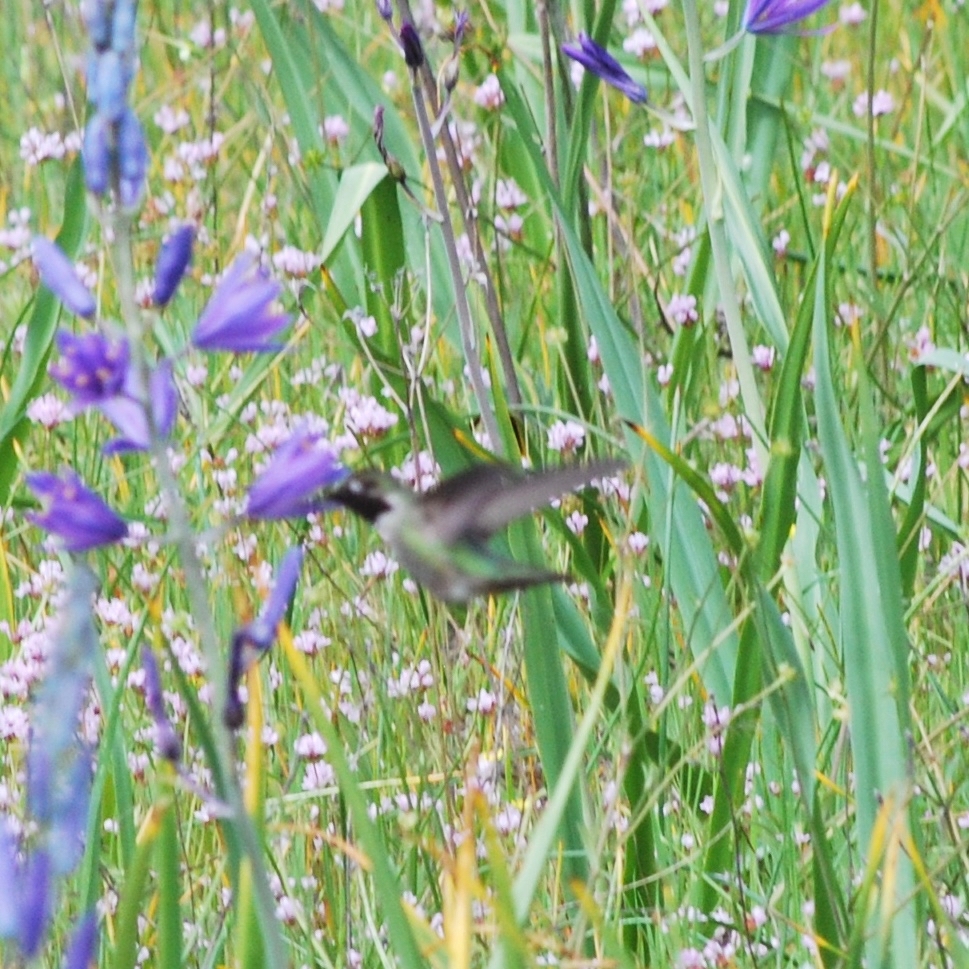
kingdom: Animalia
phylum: Chordata
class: Aves
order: Apodiformes
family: Trochilidae
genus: Calypte
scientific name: Calypte anna
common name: Anna's hummingbird
